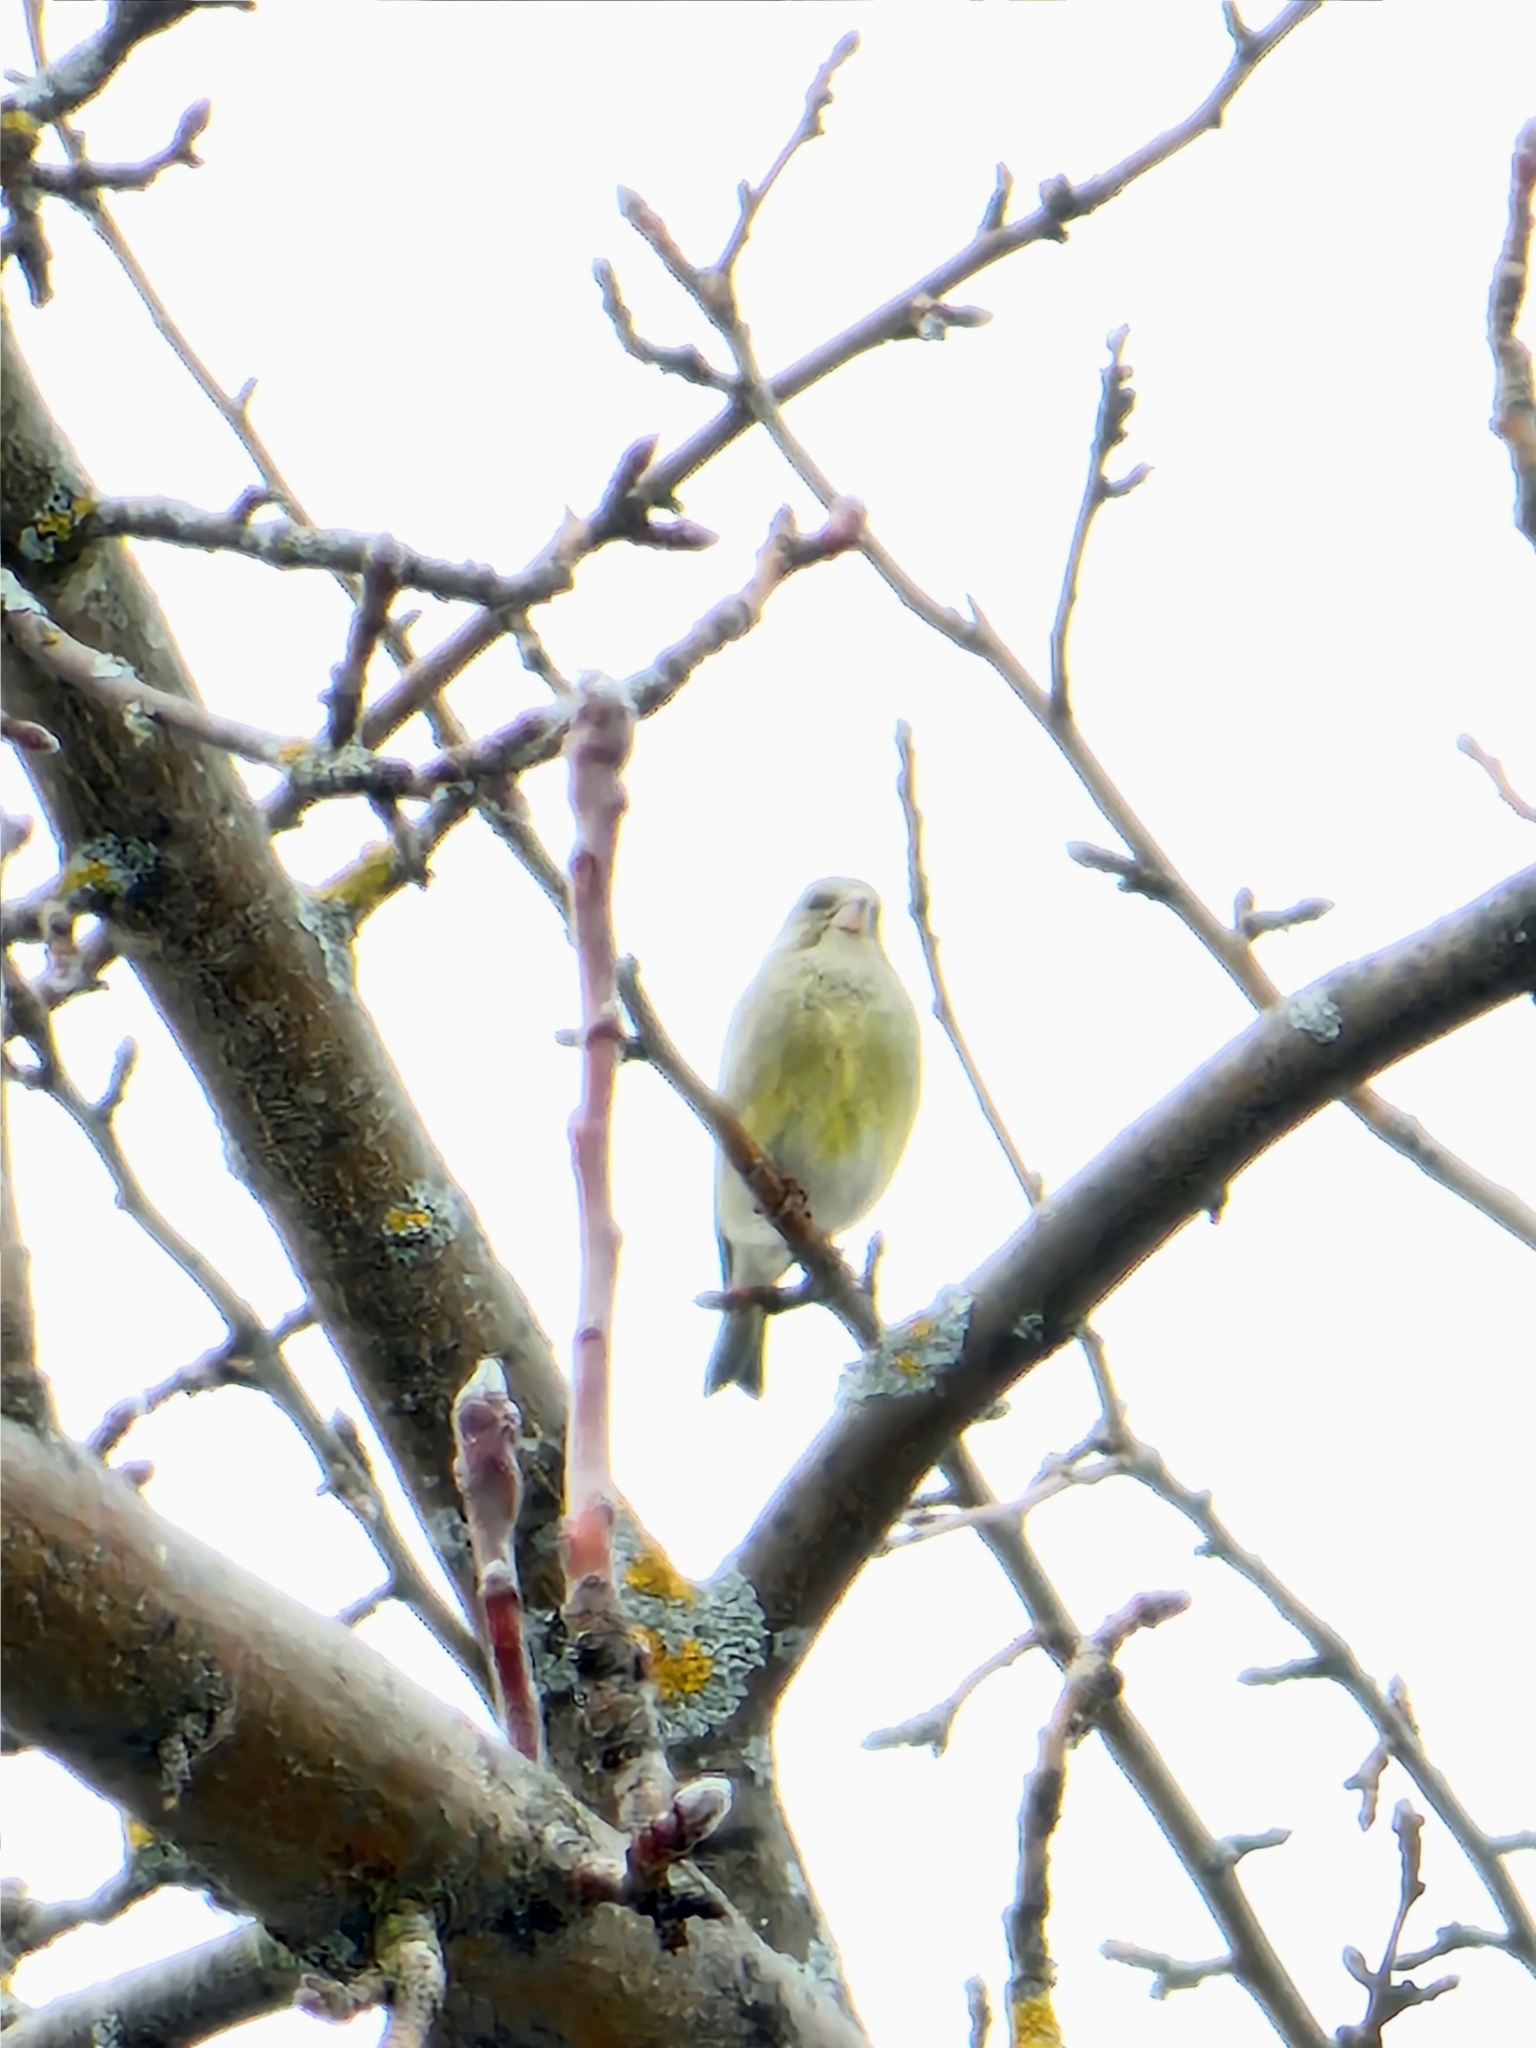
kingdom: Plantae
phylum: Tracheophyta
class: Liliopsida
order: Poales
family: Poaceae
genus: Chloris
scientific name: Chloris chloris
